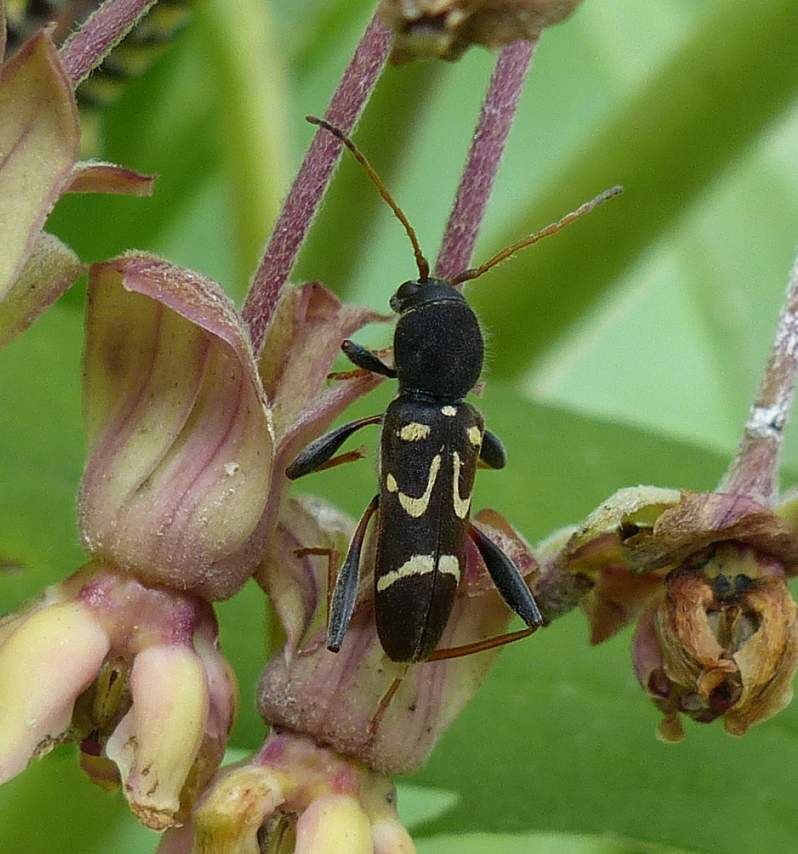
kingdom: Animalia
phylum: Arthropoda
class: Insecta
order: Coleoptera
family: Cerambycidae
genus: Clytus
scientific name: Clytus ruricola
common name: Round-necked longhorn beetle
